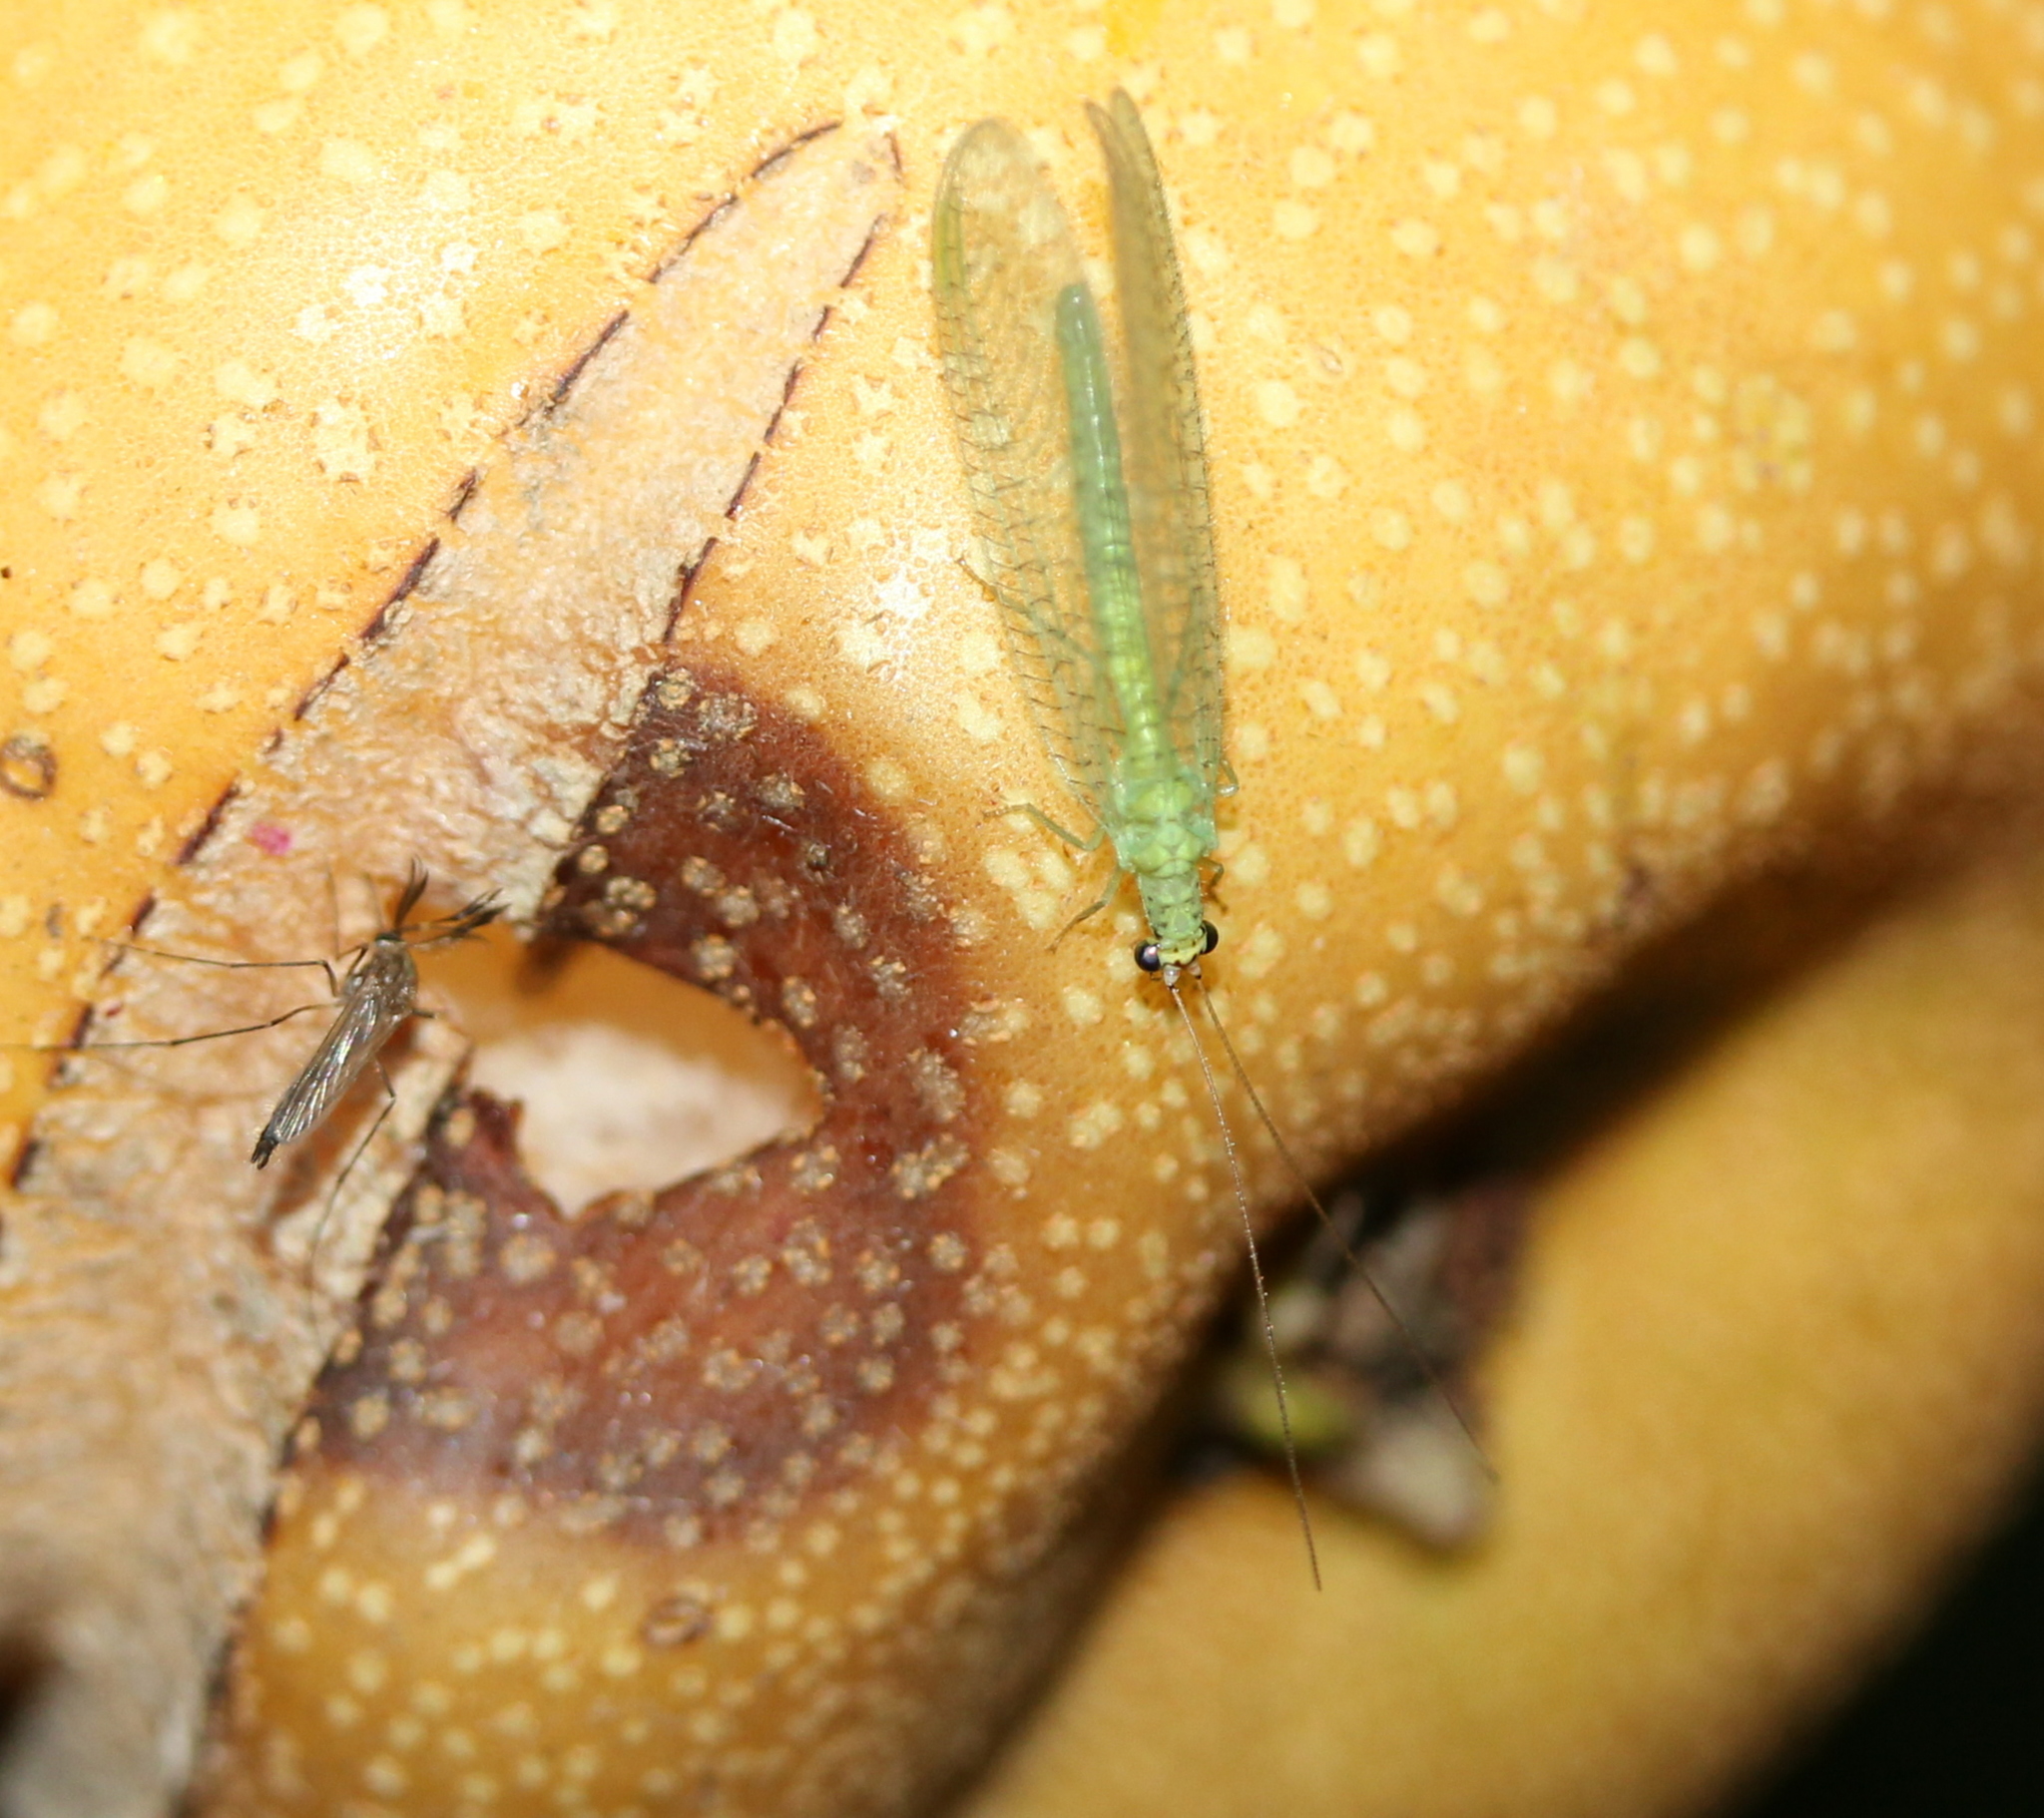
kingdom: Animalia
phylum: Arthropoda
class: Insecta
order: Neuroptera
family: Chrysopidae
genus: Chrysopa
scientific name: Chrysopa oculata
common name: Golden-eyed lacewing
